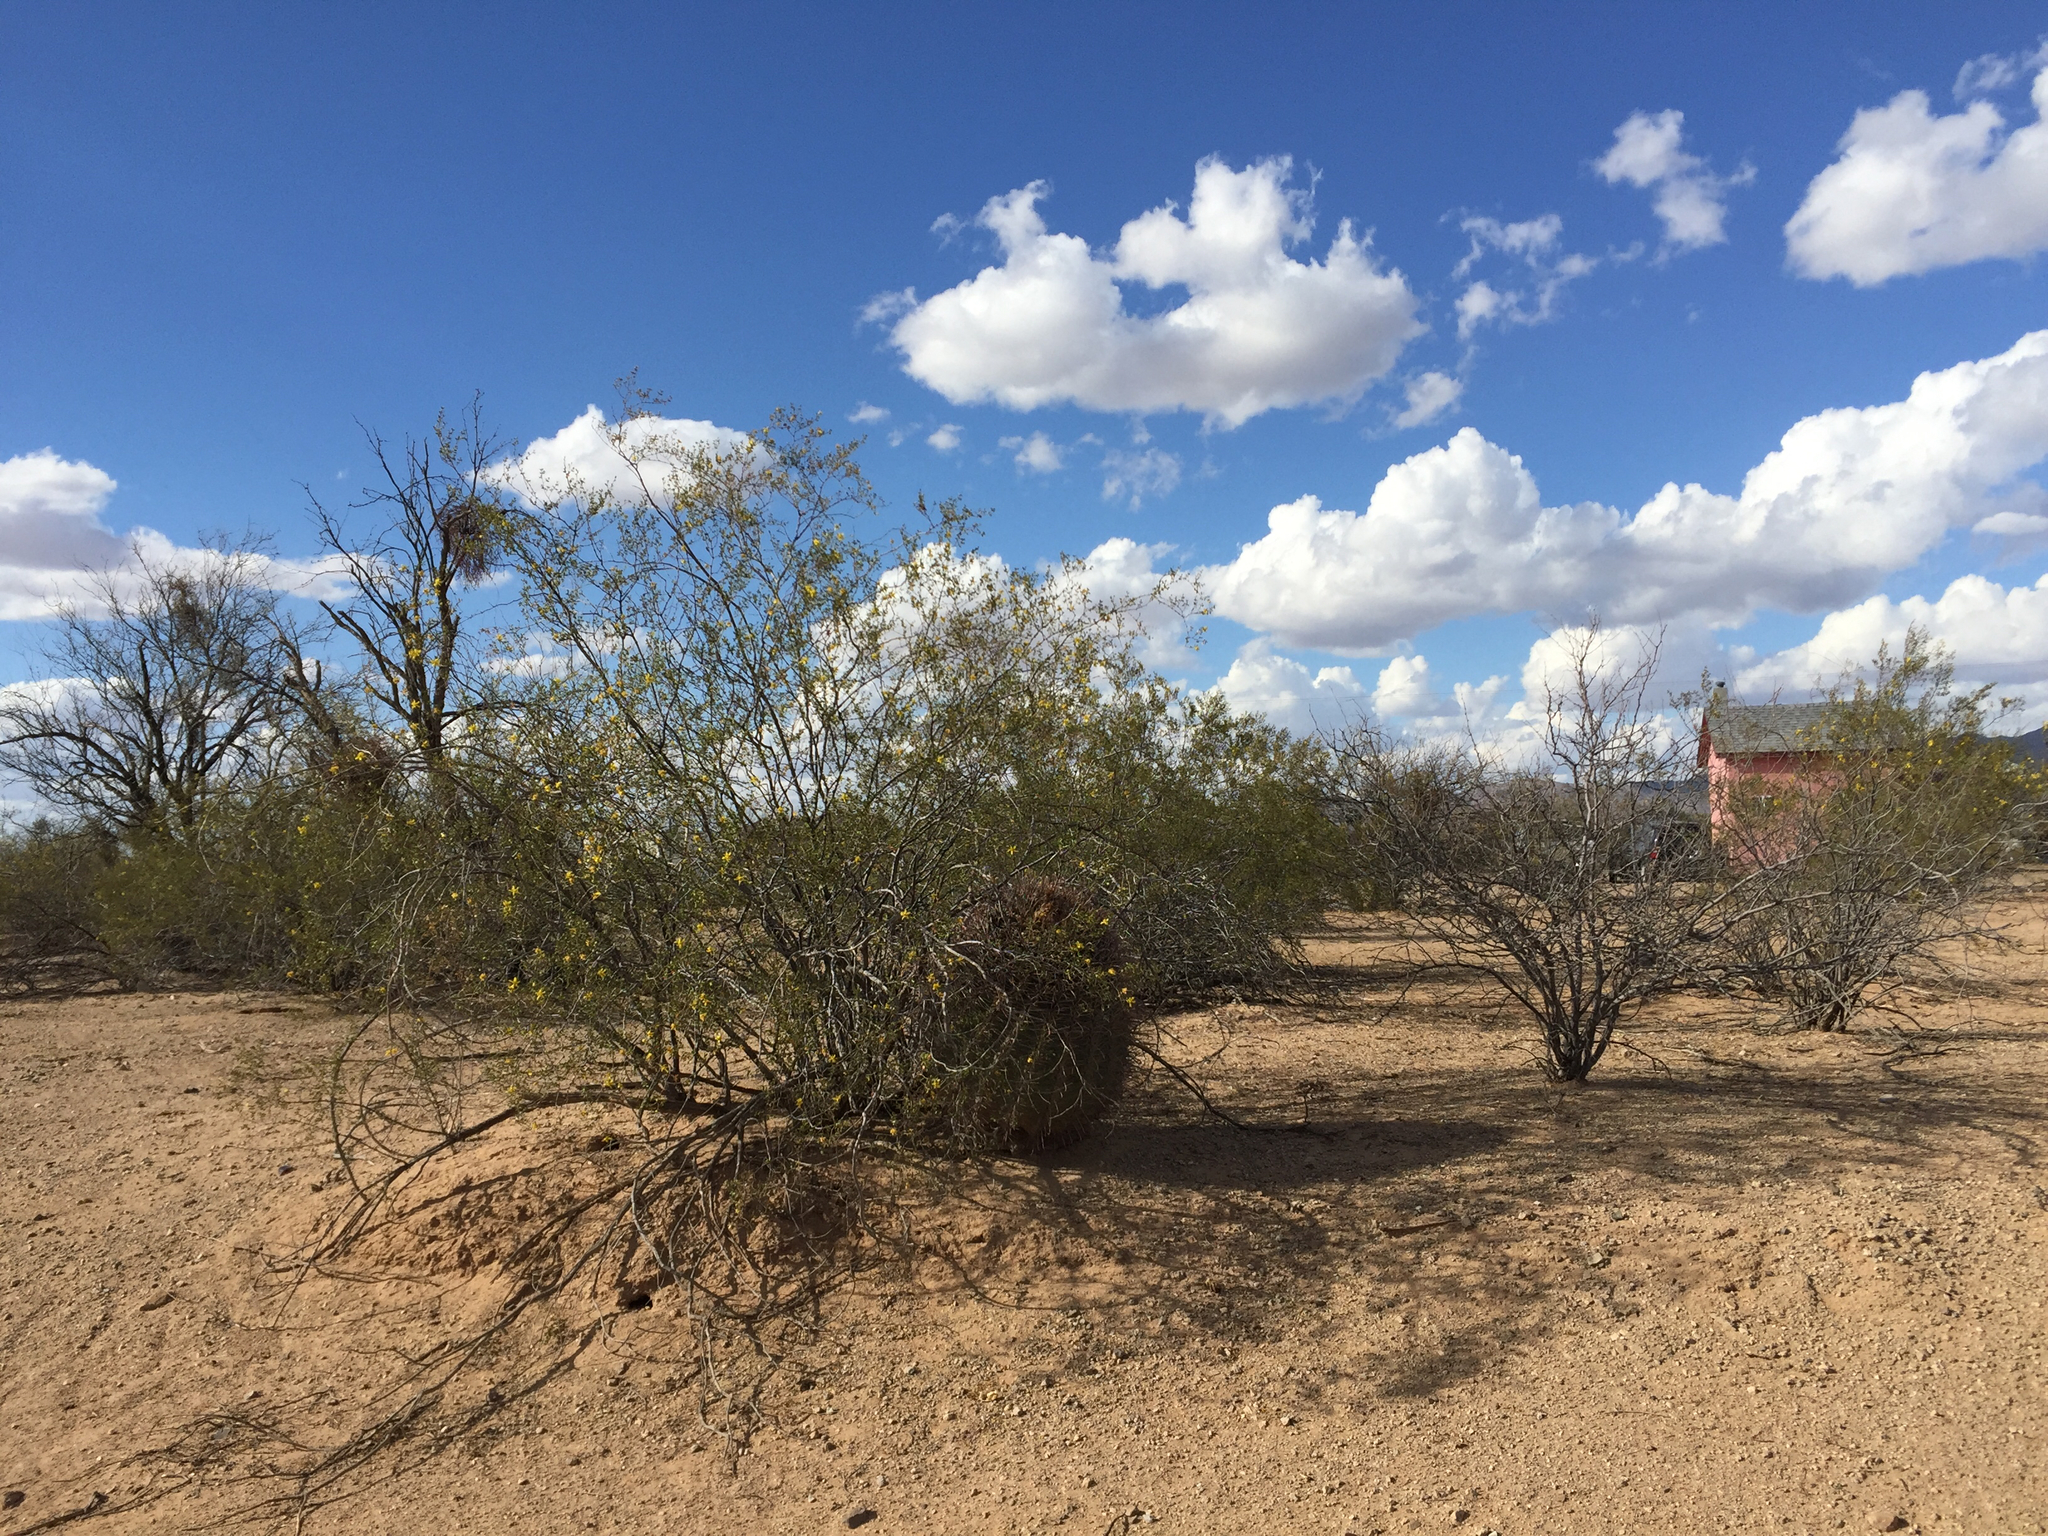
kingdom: Plantae
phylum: Tracheophyta
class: Magnoliopsida
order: Zygophyllales
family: Zygophyllaceae
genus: Larrea
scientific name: Larrea tridentata
